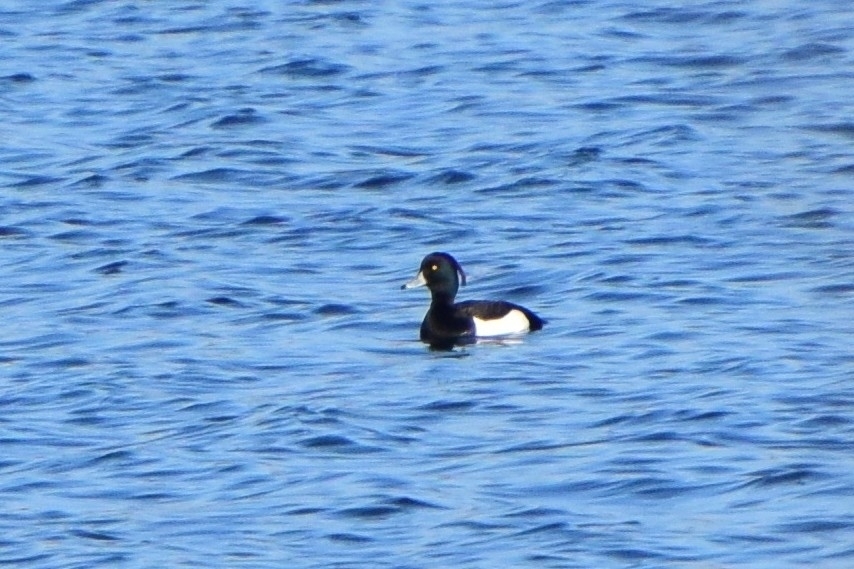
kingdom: Animalia
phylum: Chordata
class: Aves
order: Anseriformes
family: Anatidae
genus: Aythya
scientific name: Aythya fuligula
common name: Tufted duck
